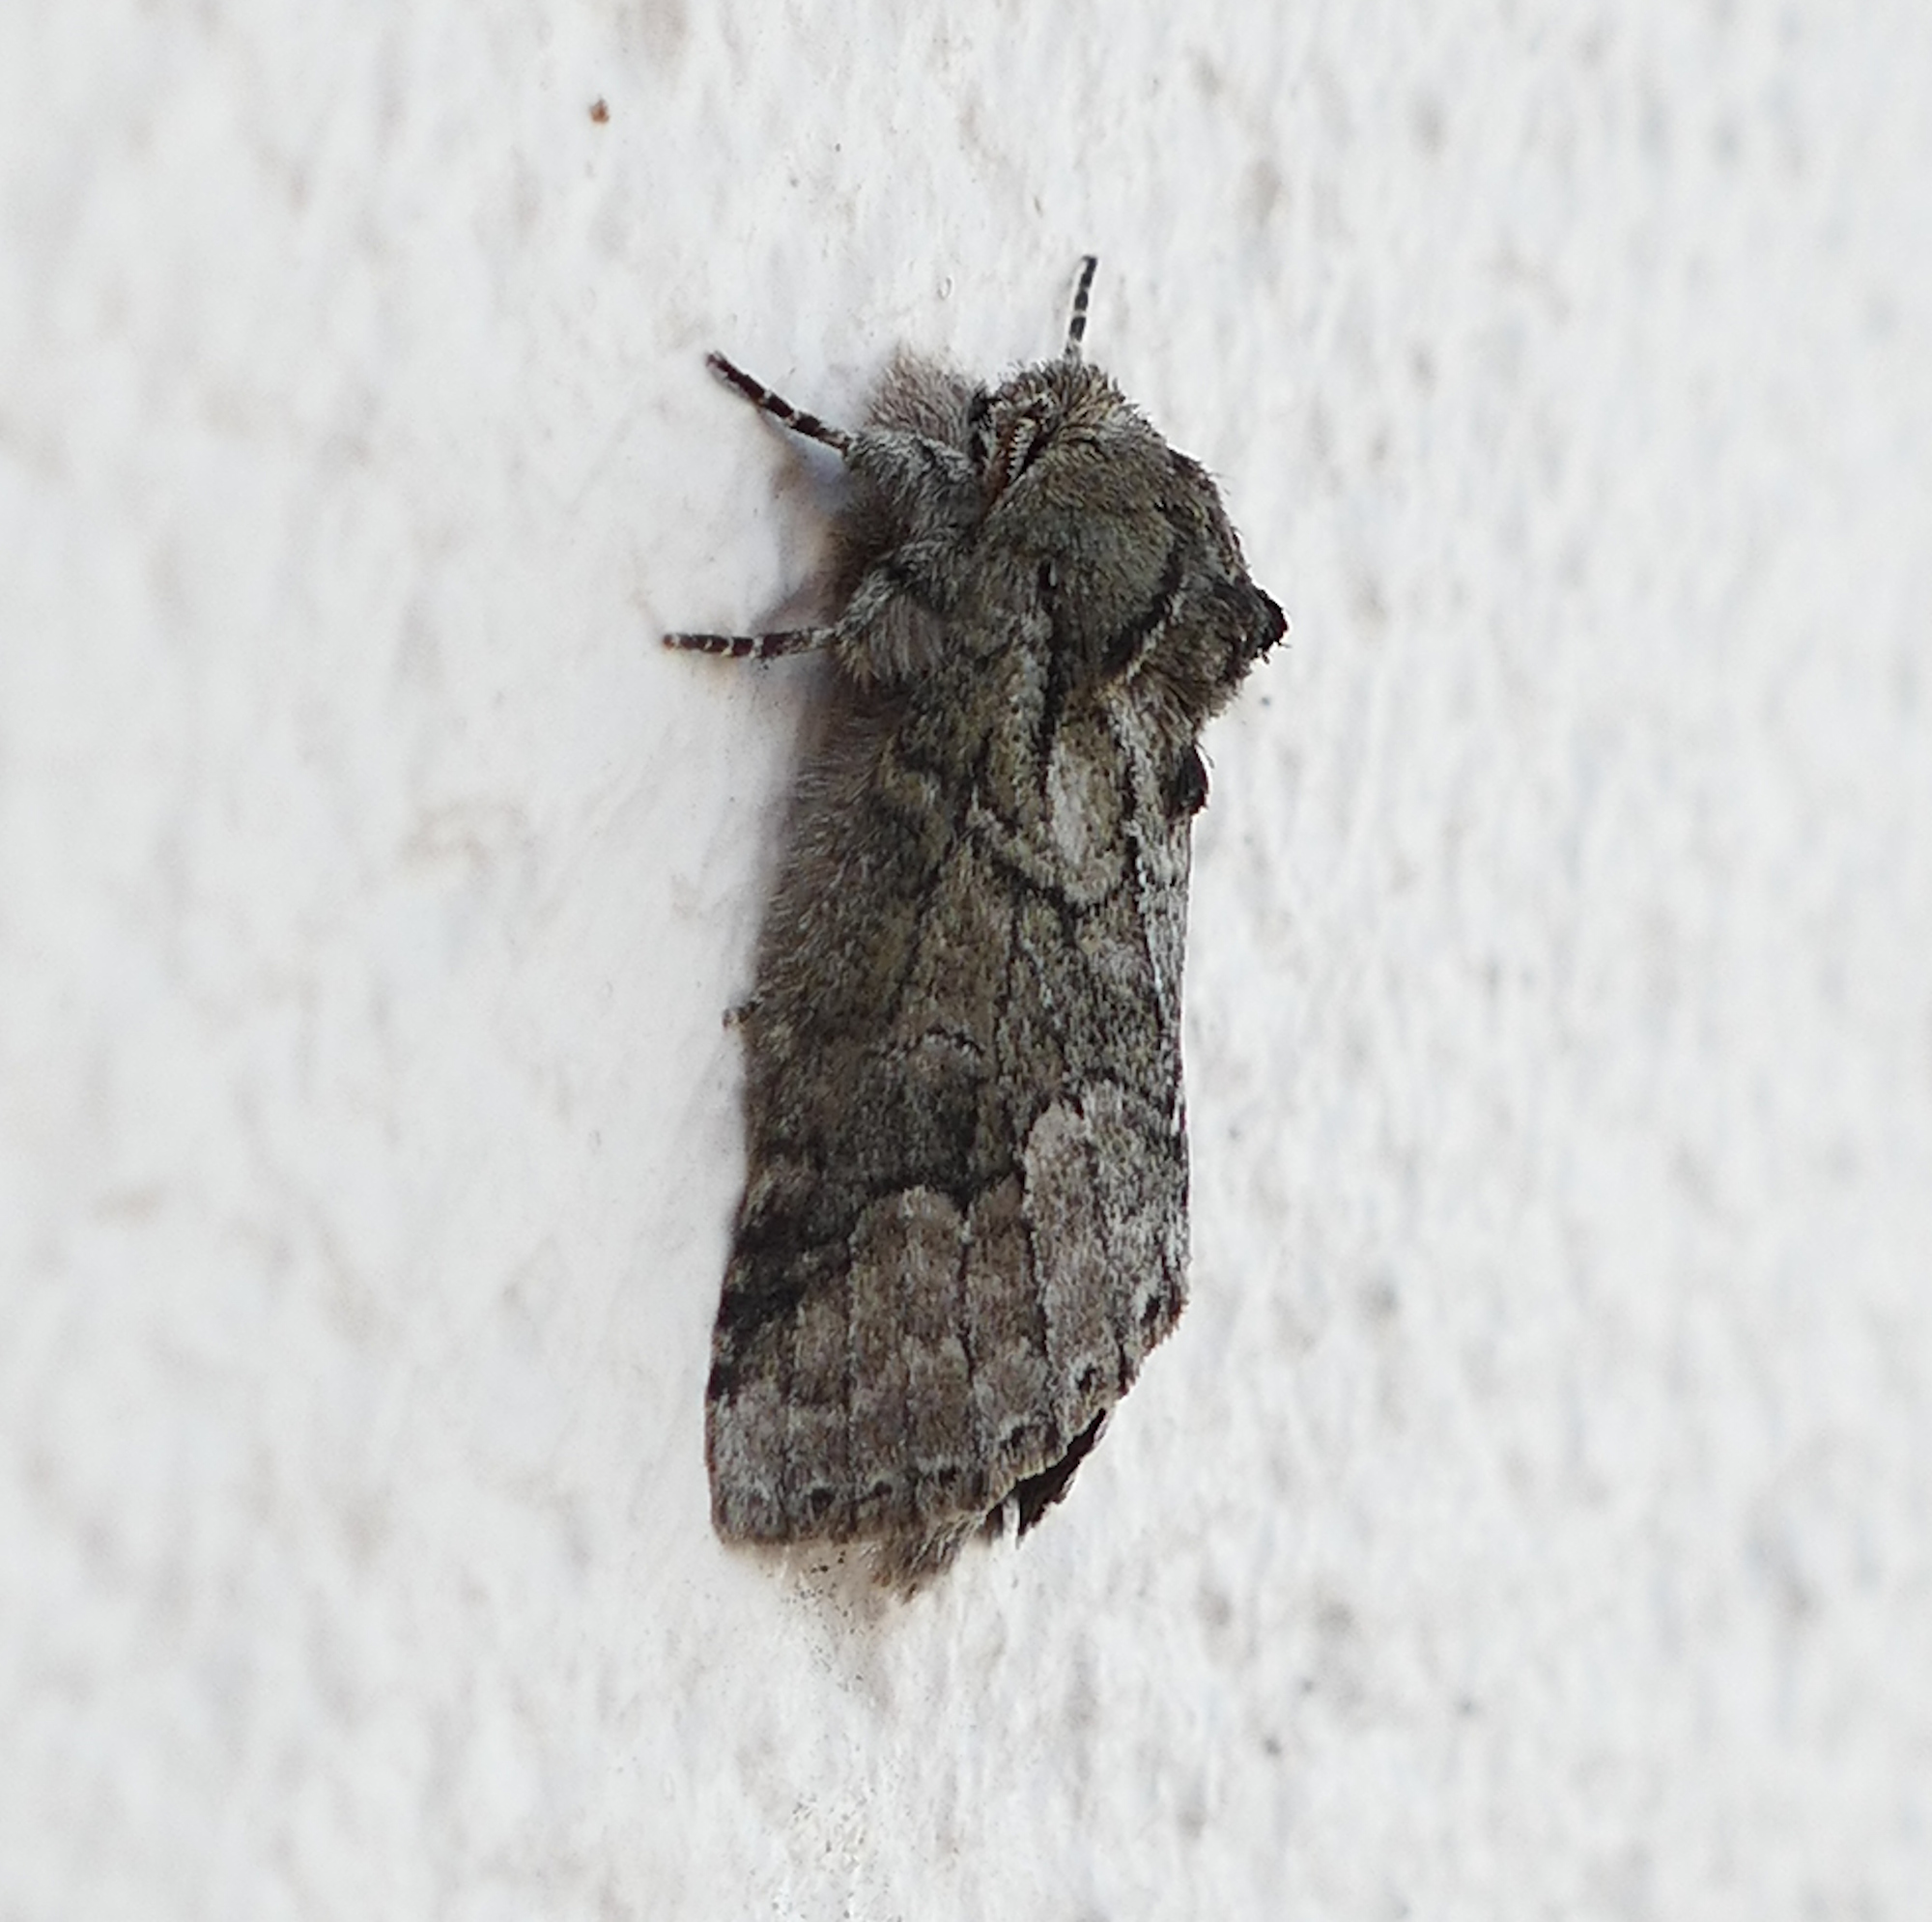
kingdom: Animalia
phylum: Arthropoda
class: Insecta
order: Lepidoptera
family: Notodontidae
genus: Lochmaeus
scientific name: Lochmaeus bilineata
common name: Double-lined prominent
